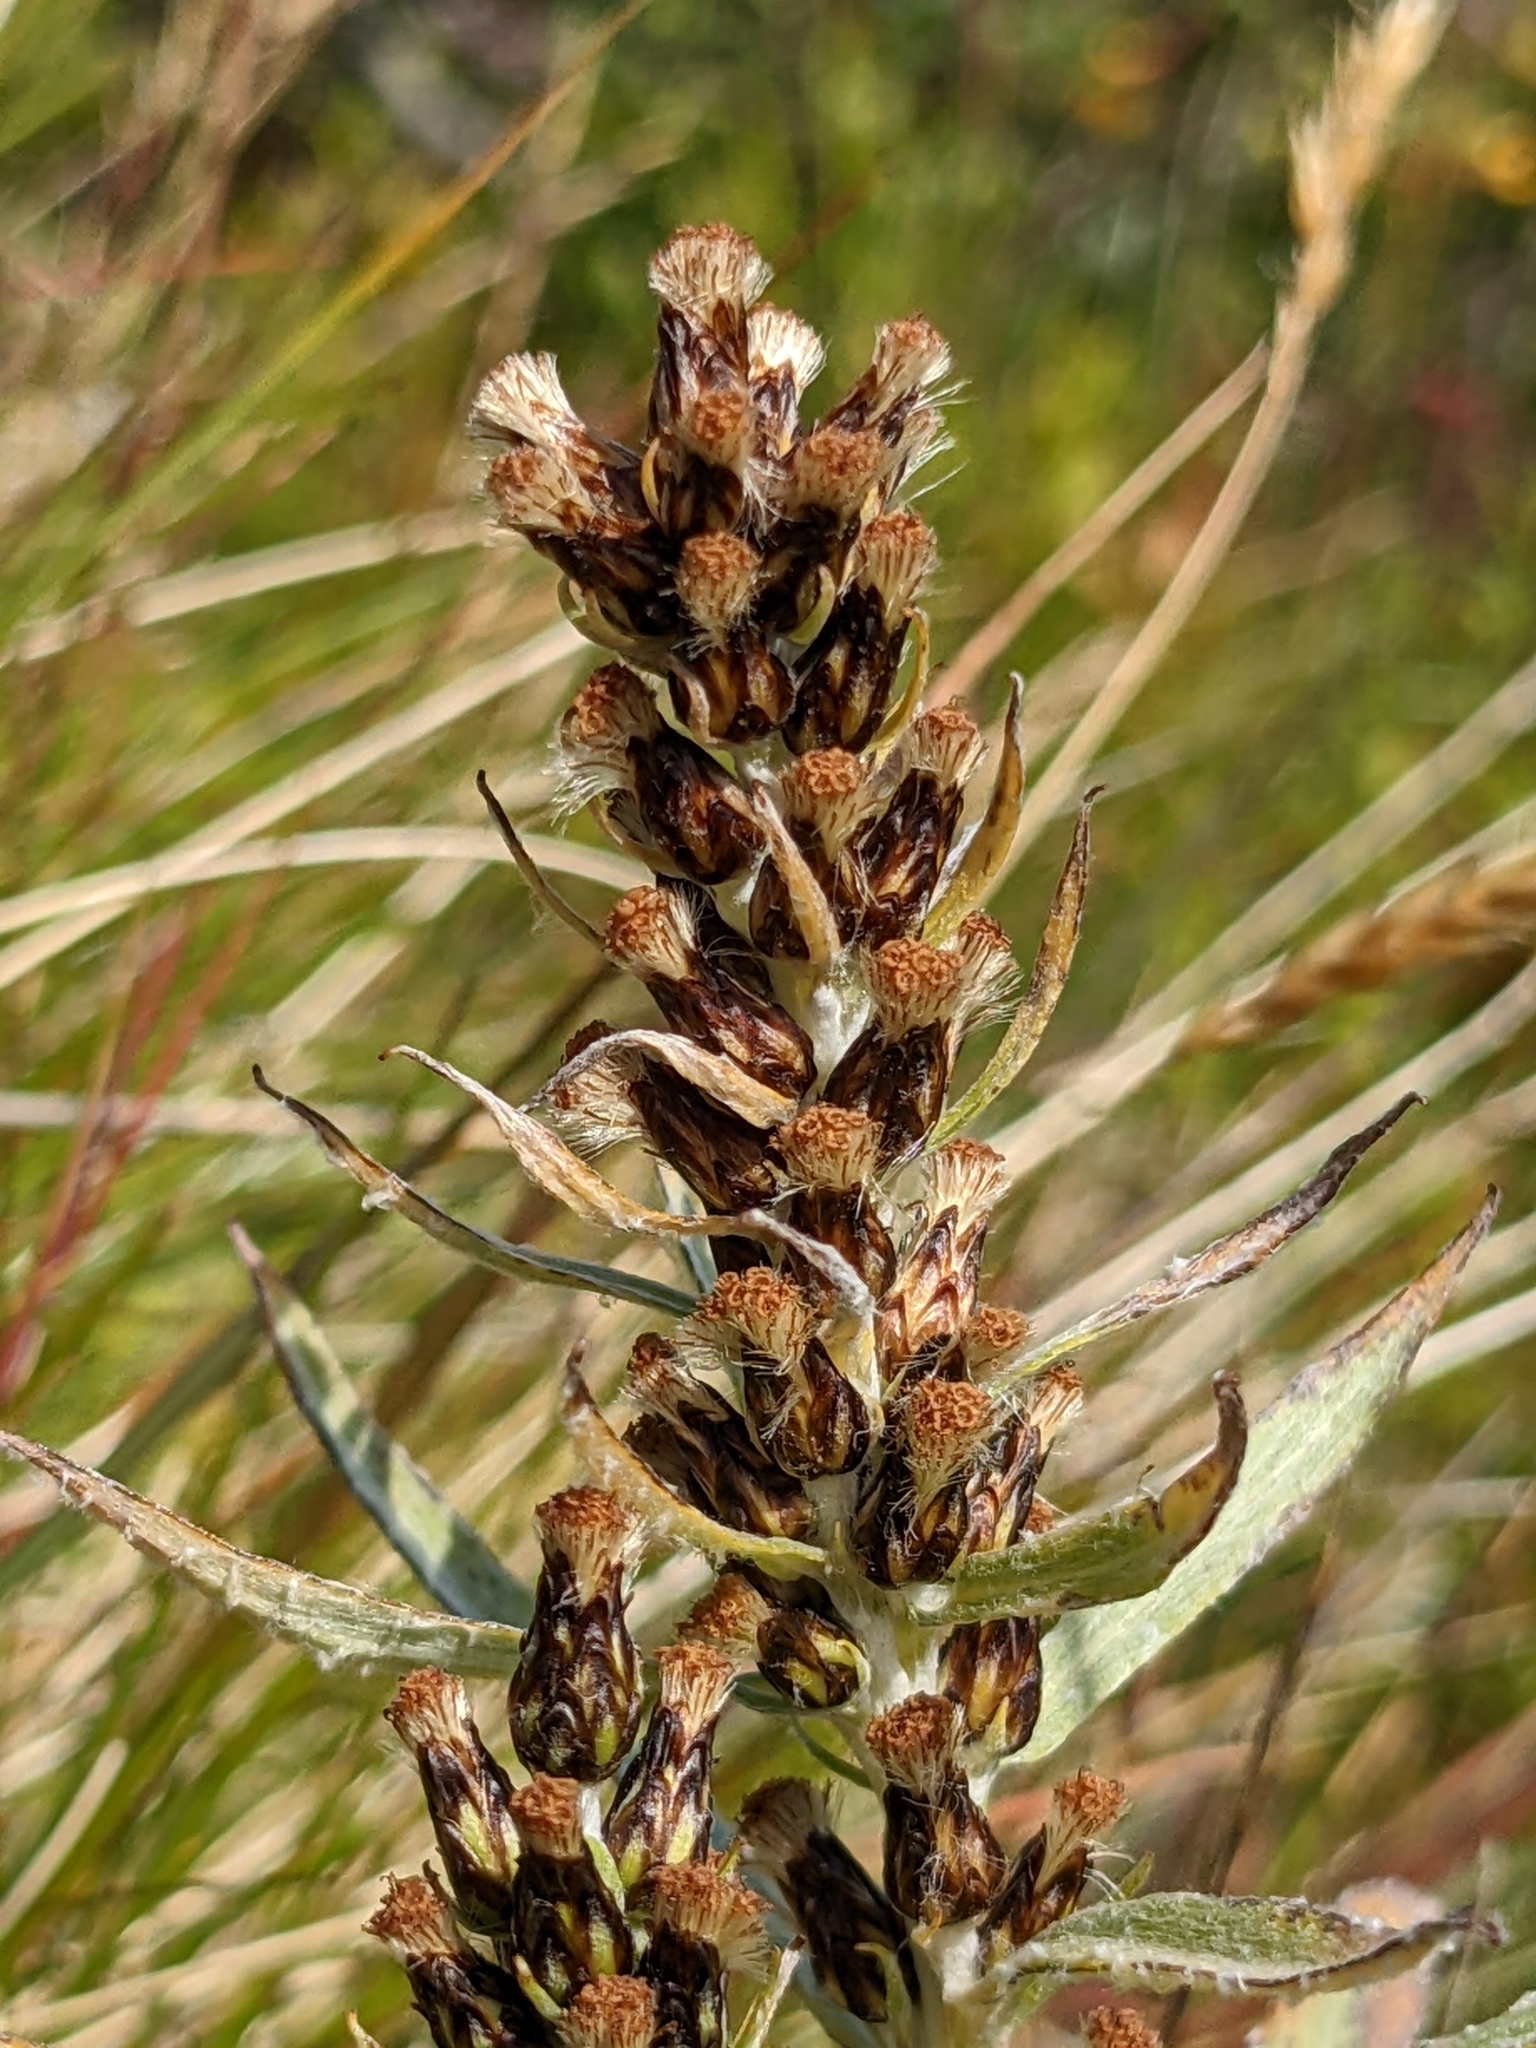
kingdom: Plantae
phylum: Tracheophyta
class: Magnoliopsida
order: Asterales
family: Asteraceae
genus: Omalotheca
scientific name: Omalotheca norvegica
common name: Norwegian arctic-cudweed
